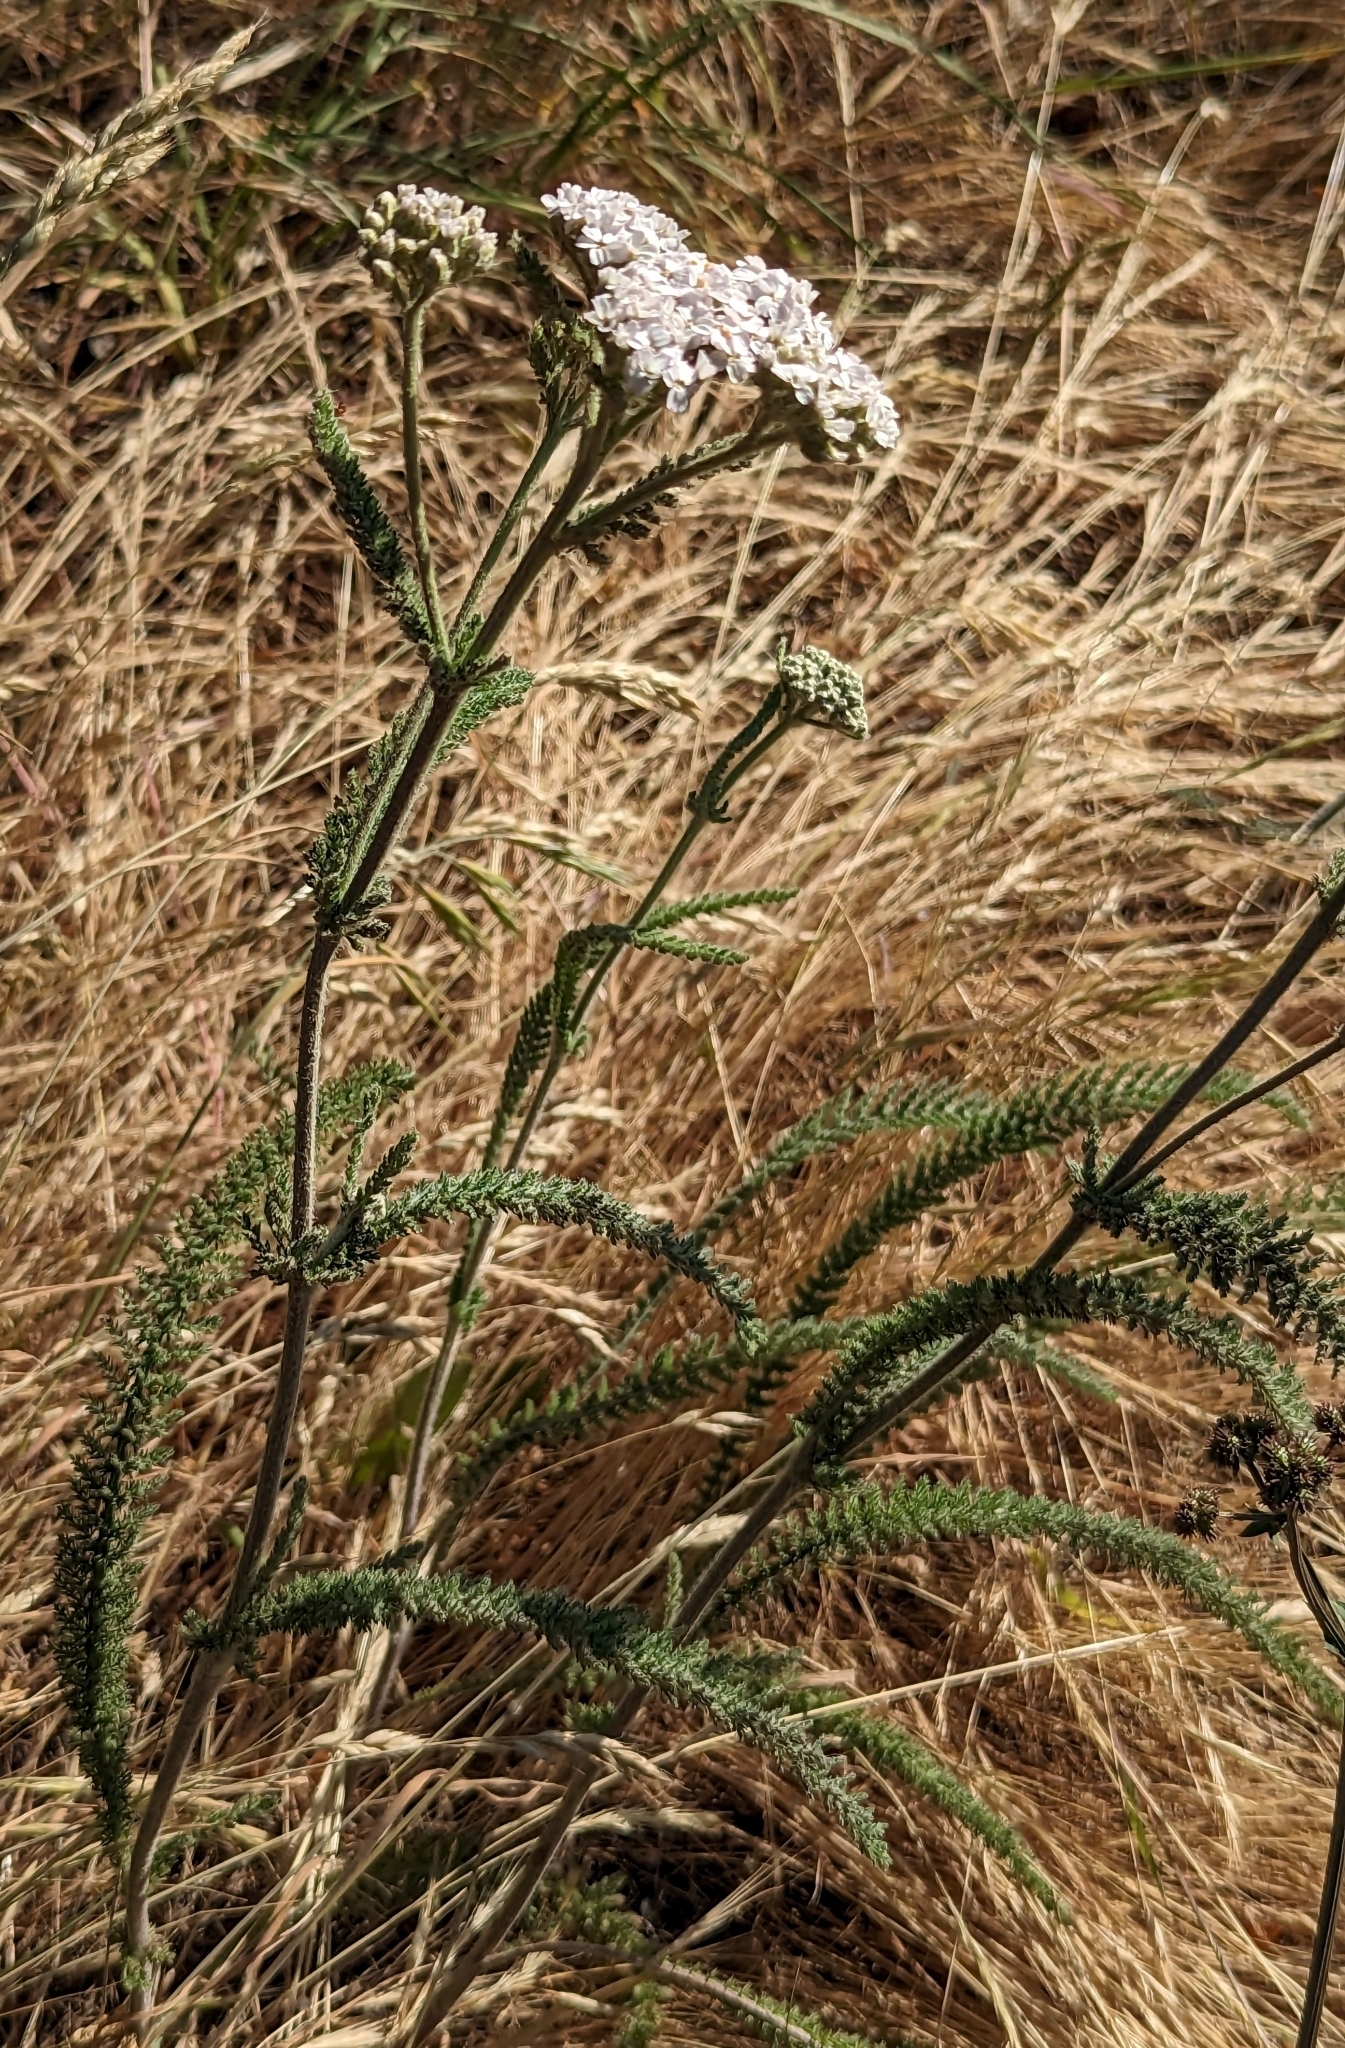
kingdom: Plantae
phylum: Tracheophyta
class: Magnoliopsida
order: Asterales
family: Asteraceae
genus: Achillea
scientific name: Achillea millefolium
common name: Yarrow
